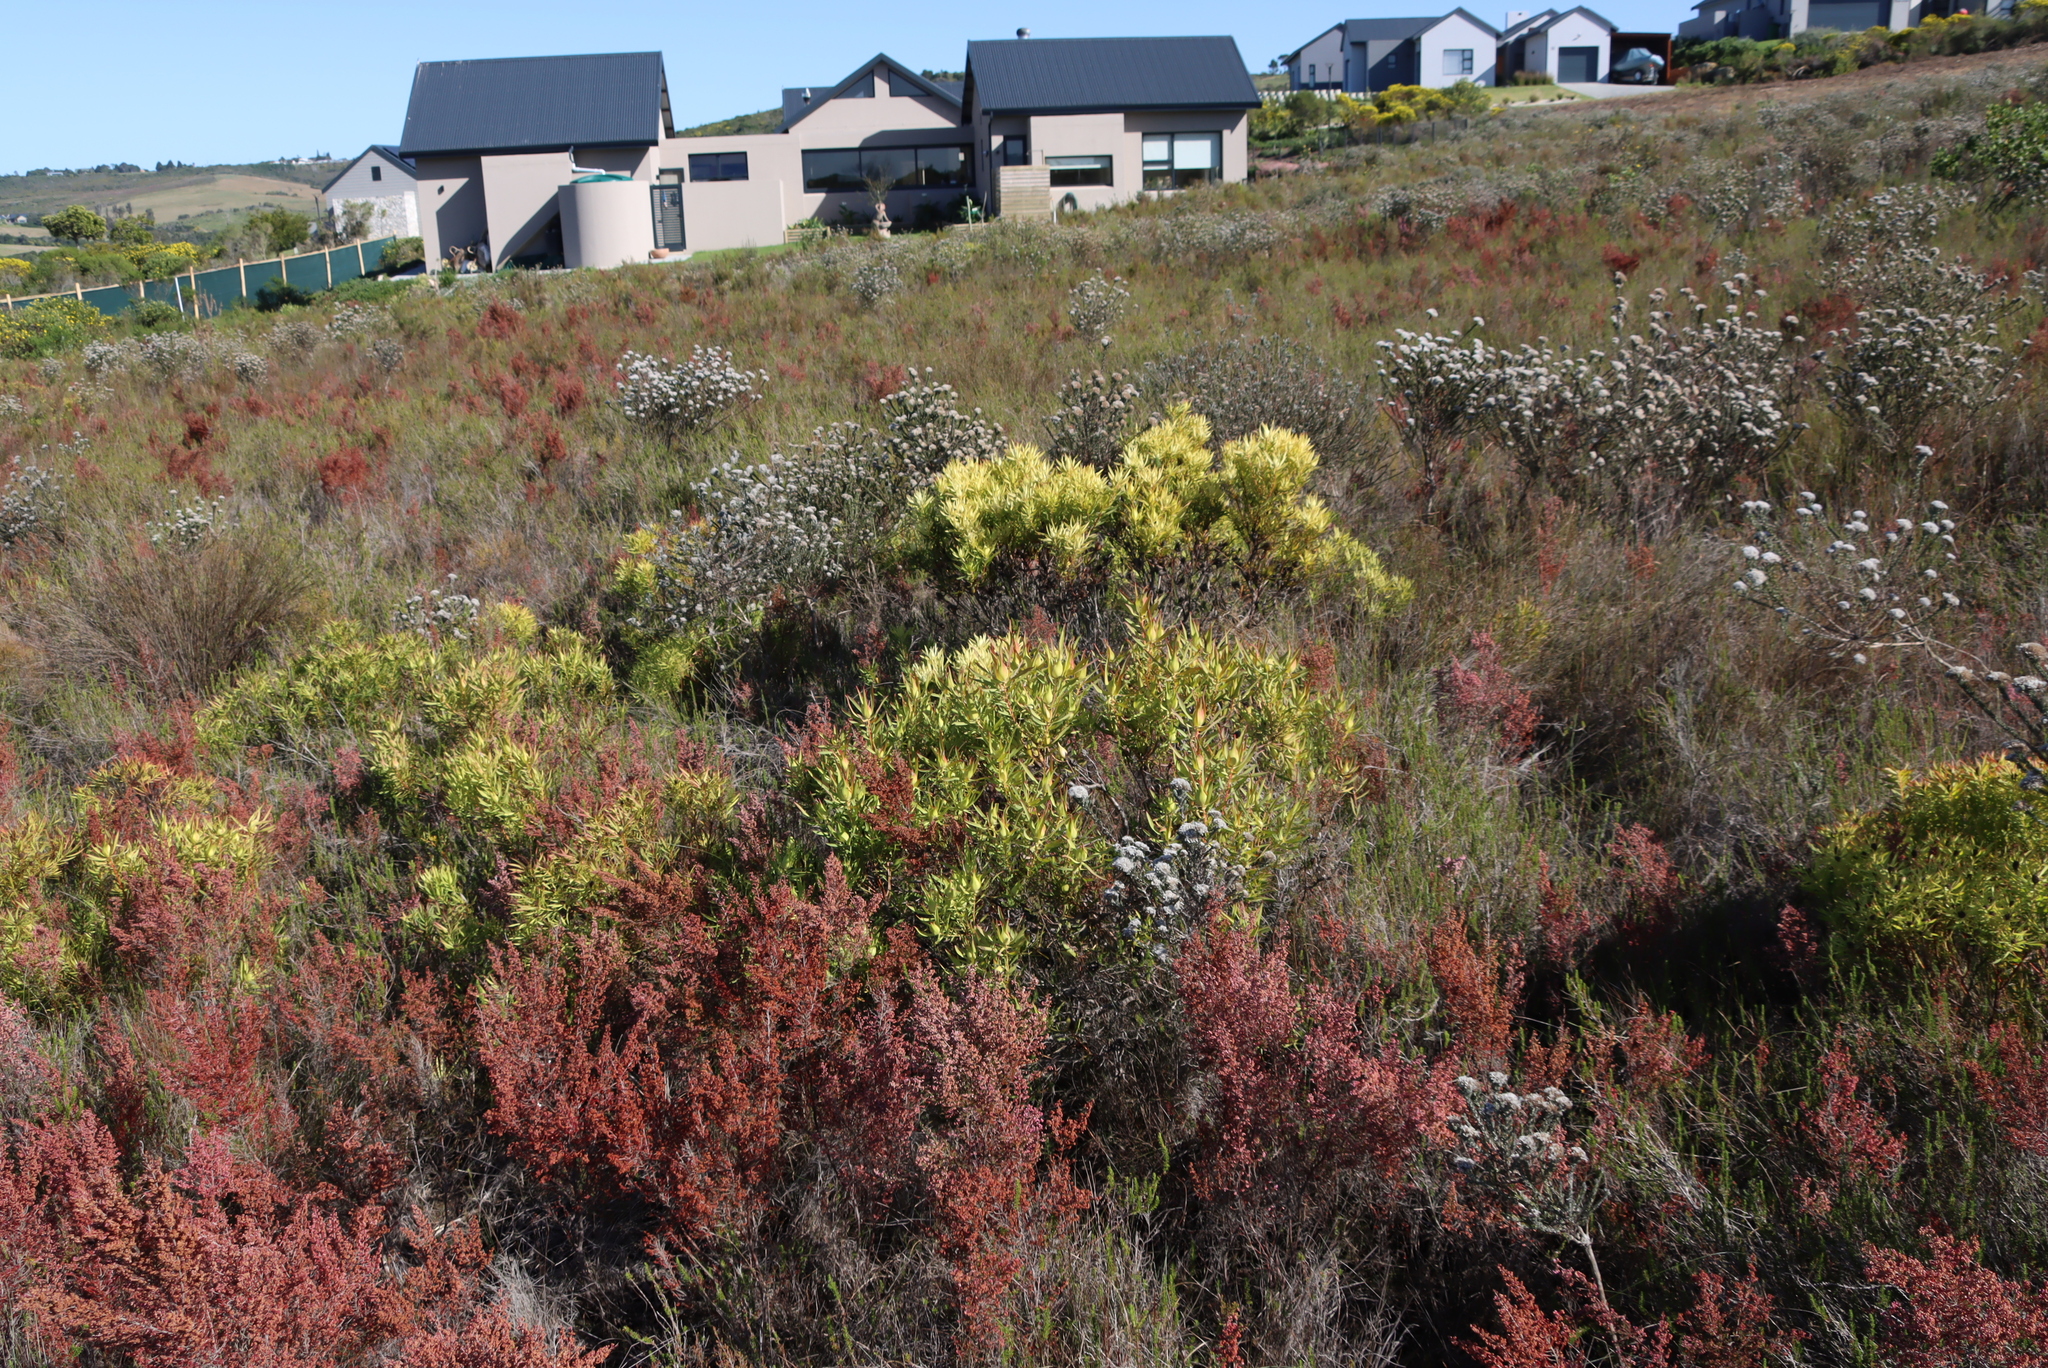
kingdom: Plantae
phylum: Tracheophyta
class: Magnoliopsida
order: Proteales
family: Proteaceae
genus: Leucadendron
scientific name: Leucadendron salignum
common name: Common sunshine conebush
